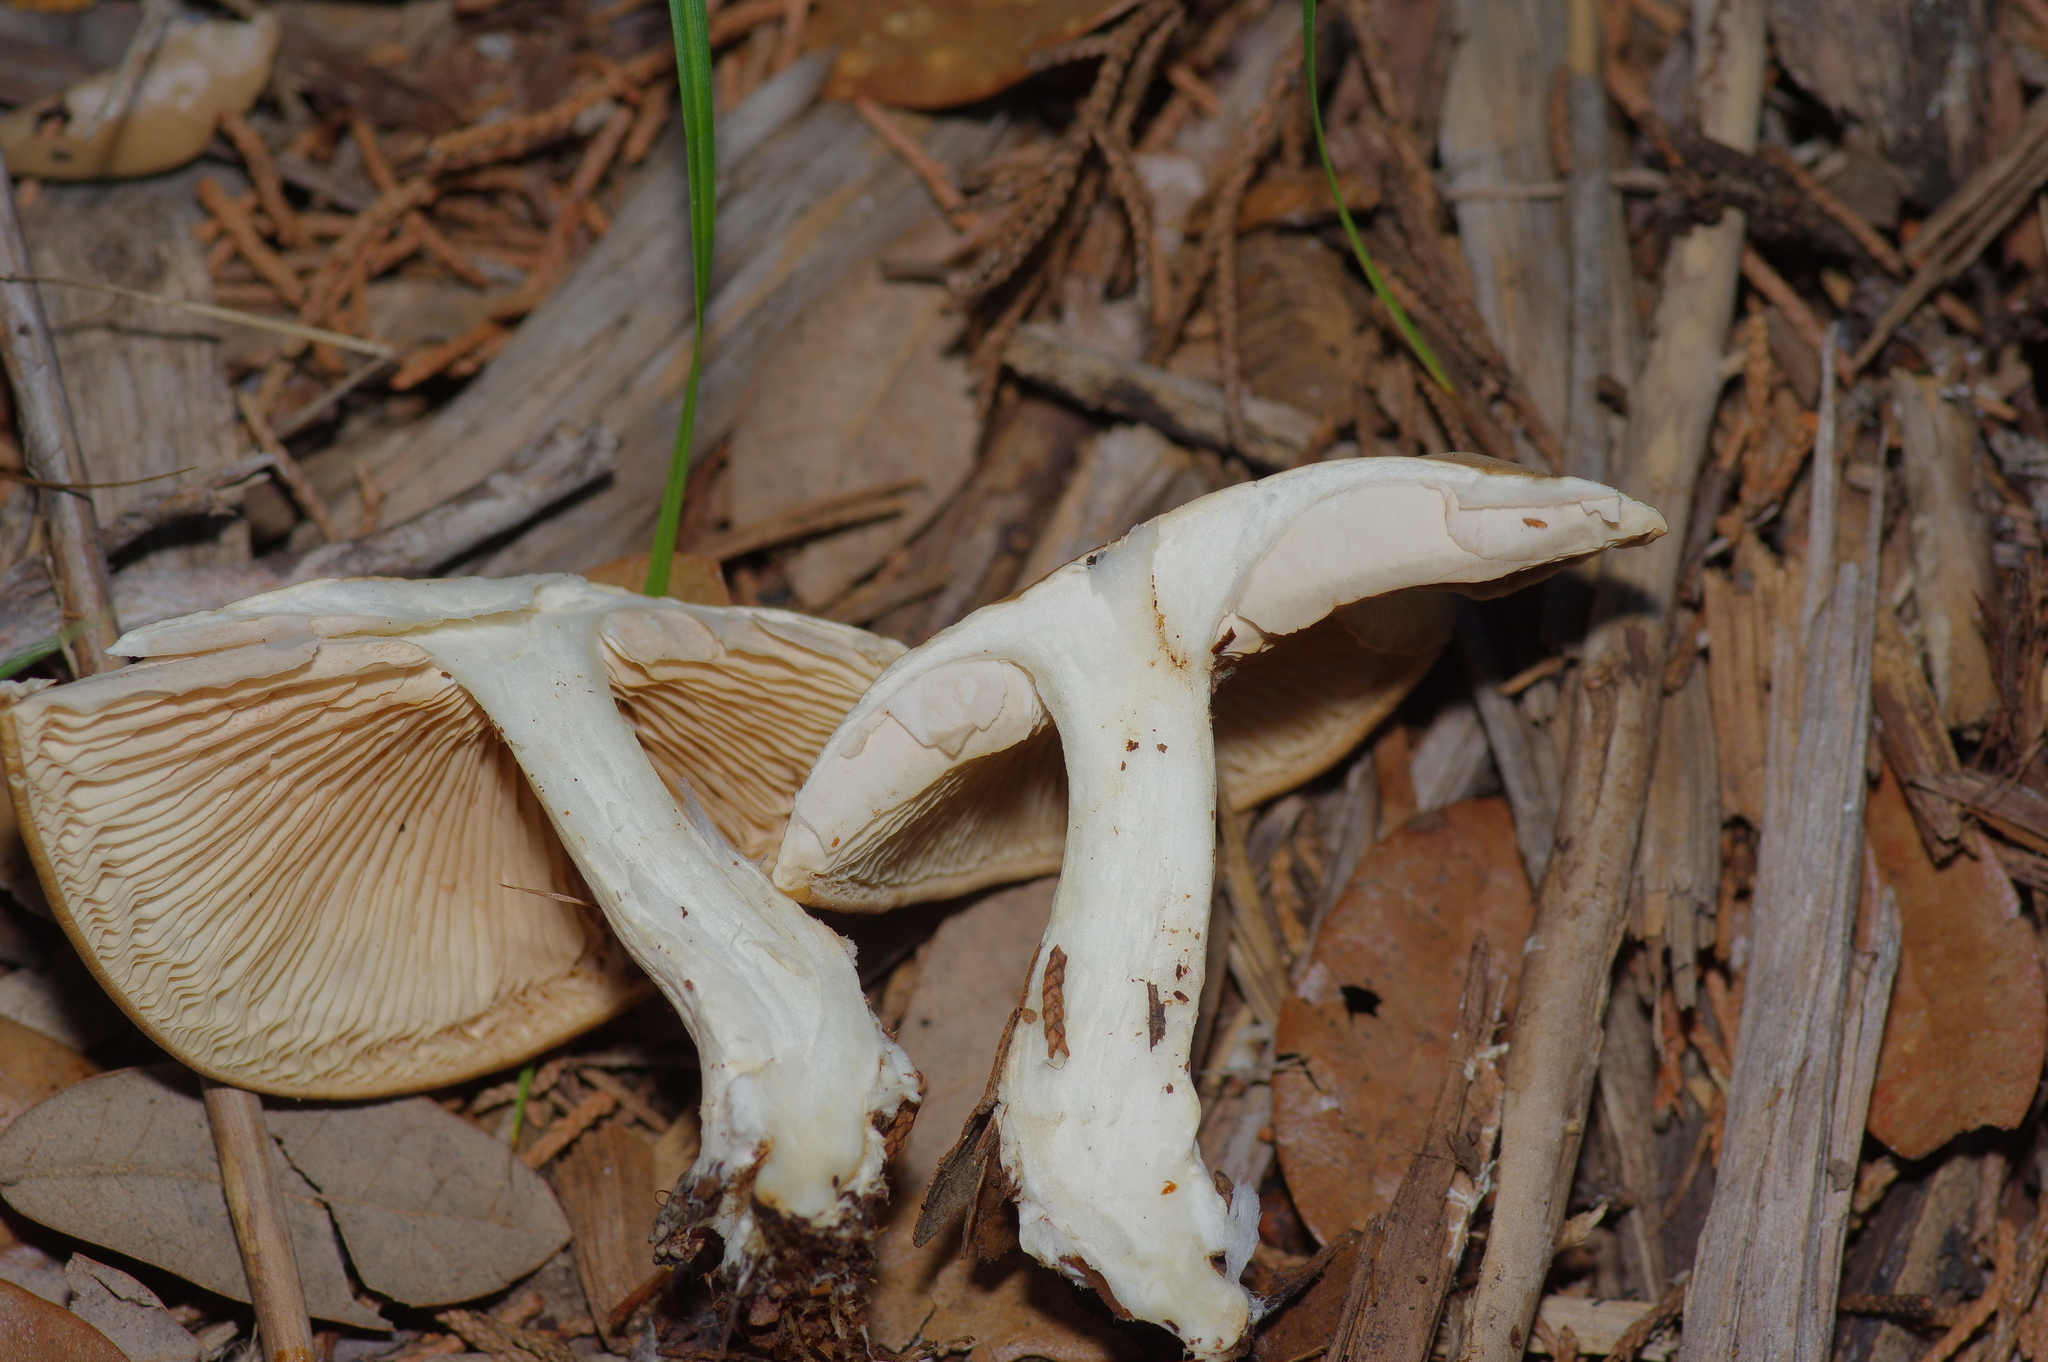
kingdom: Fungi
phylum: Basidiomycota
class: Agaricomycetes
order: Agaricales
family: Pluteaceae
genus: Pluteus
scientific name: Pluteus petasatus
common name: Scaly shield
